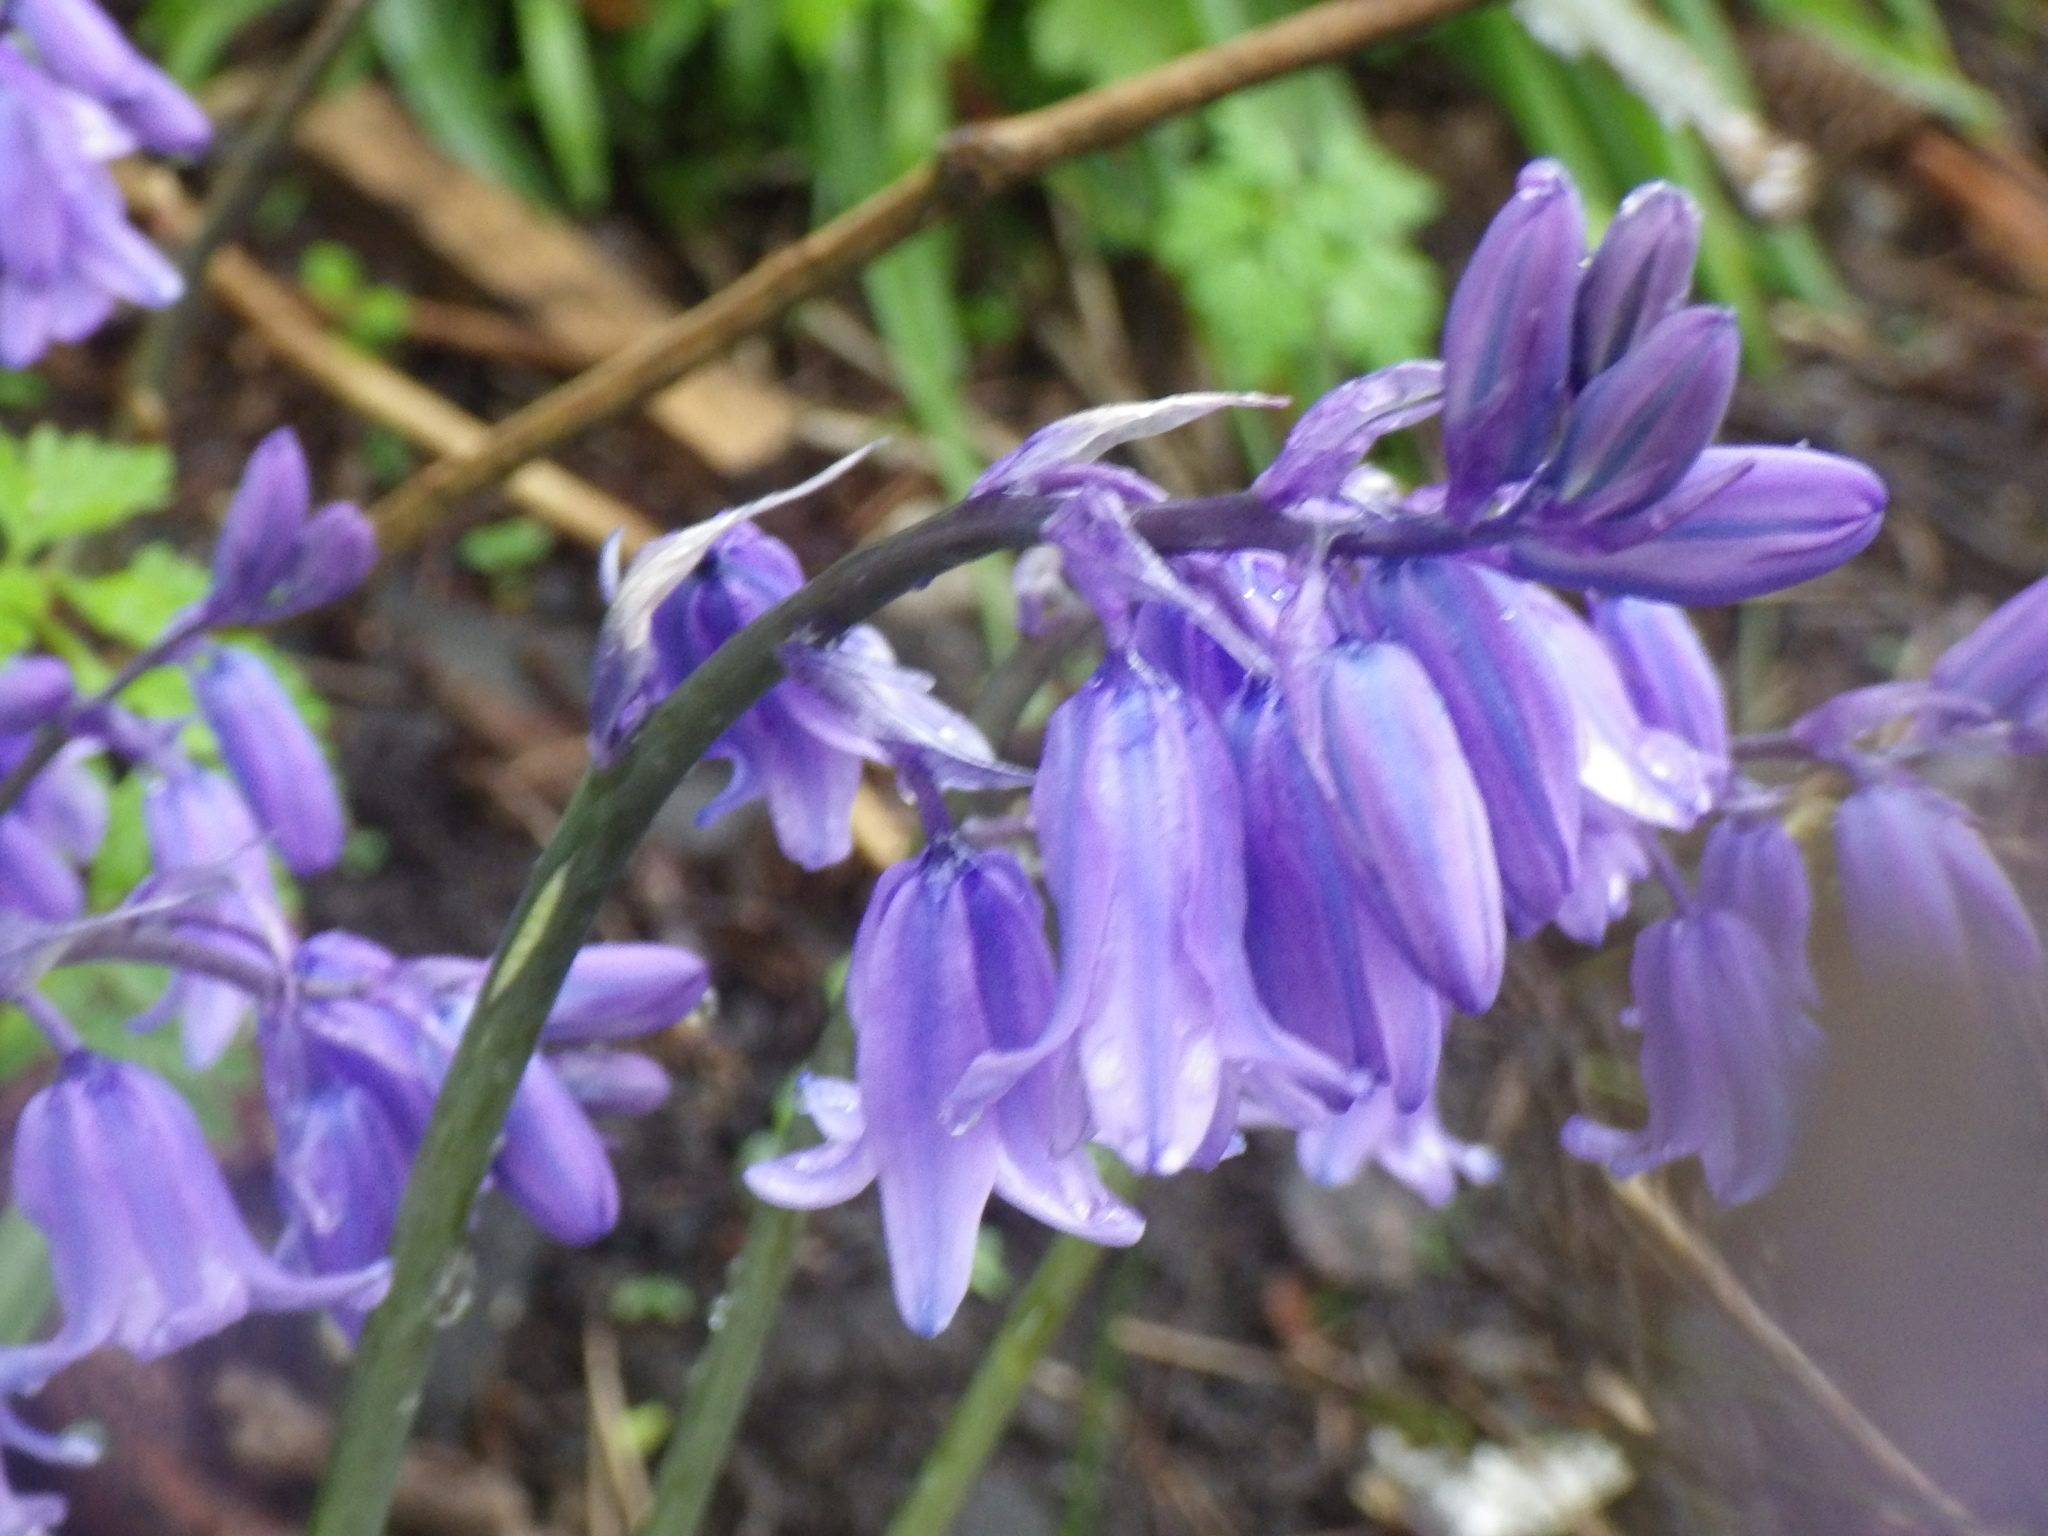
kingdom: Plantae
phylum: Tracheophyta
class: Liliopsida
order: Asparagales
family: Asparagaceae
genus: Hyacinthoides
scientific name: Hyacinthoides massartiana
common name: Hyacinthoides
